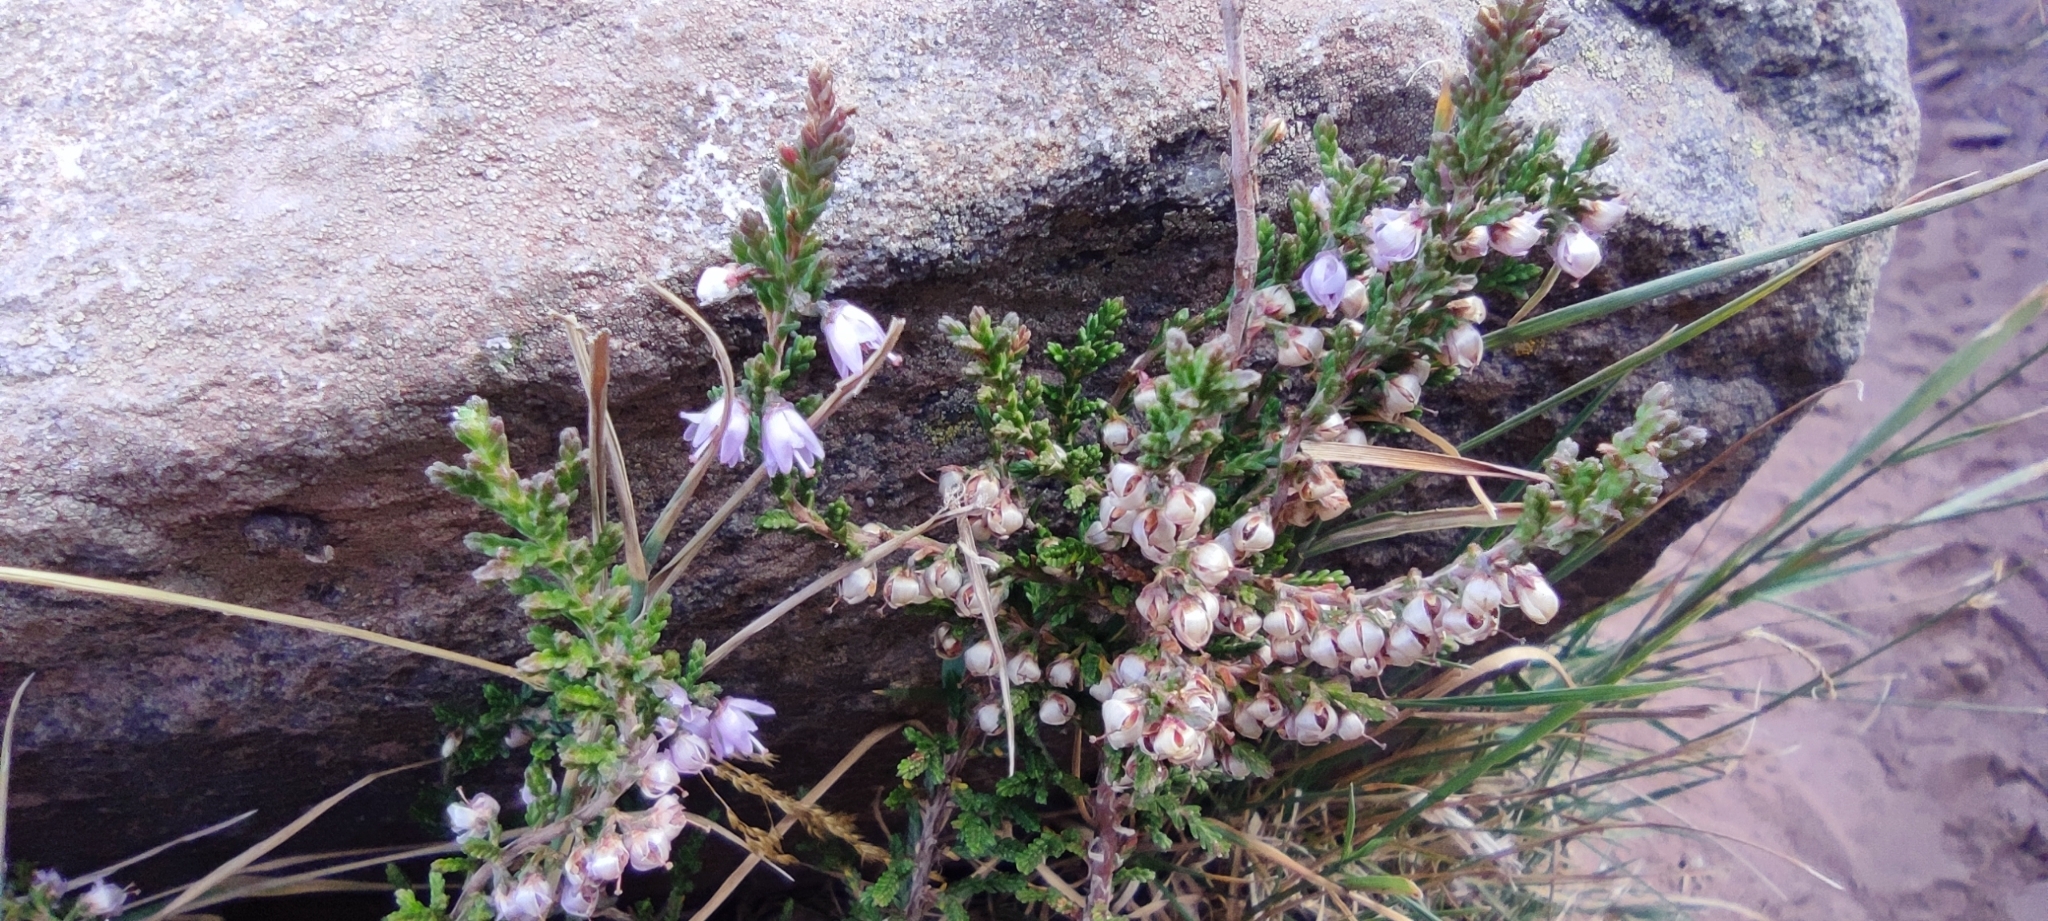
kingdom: Plantae
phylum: Tracheophyta
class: Magnoliopsida
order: Ericales
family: Ericaceae
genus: Calluna
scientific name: Calluna vulgaris
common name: Heather
